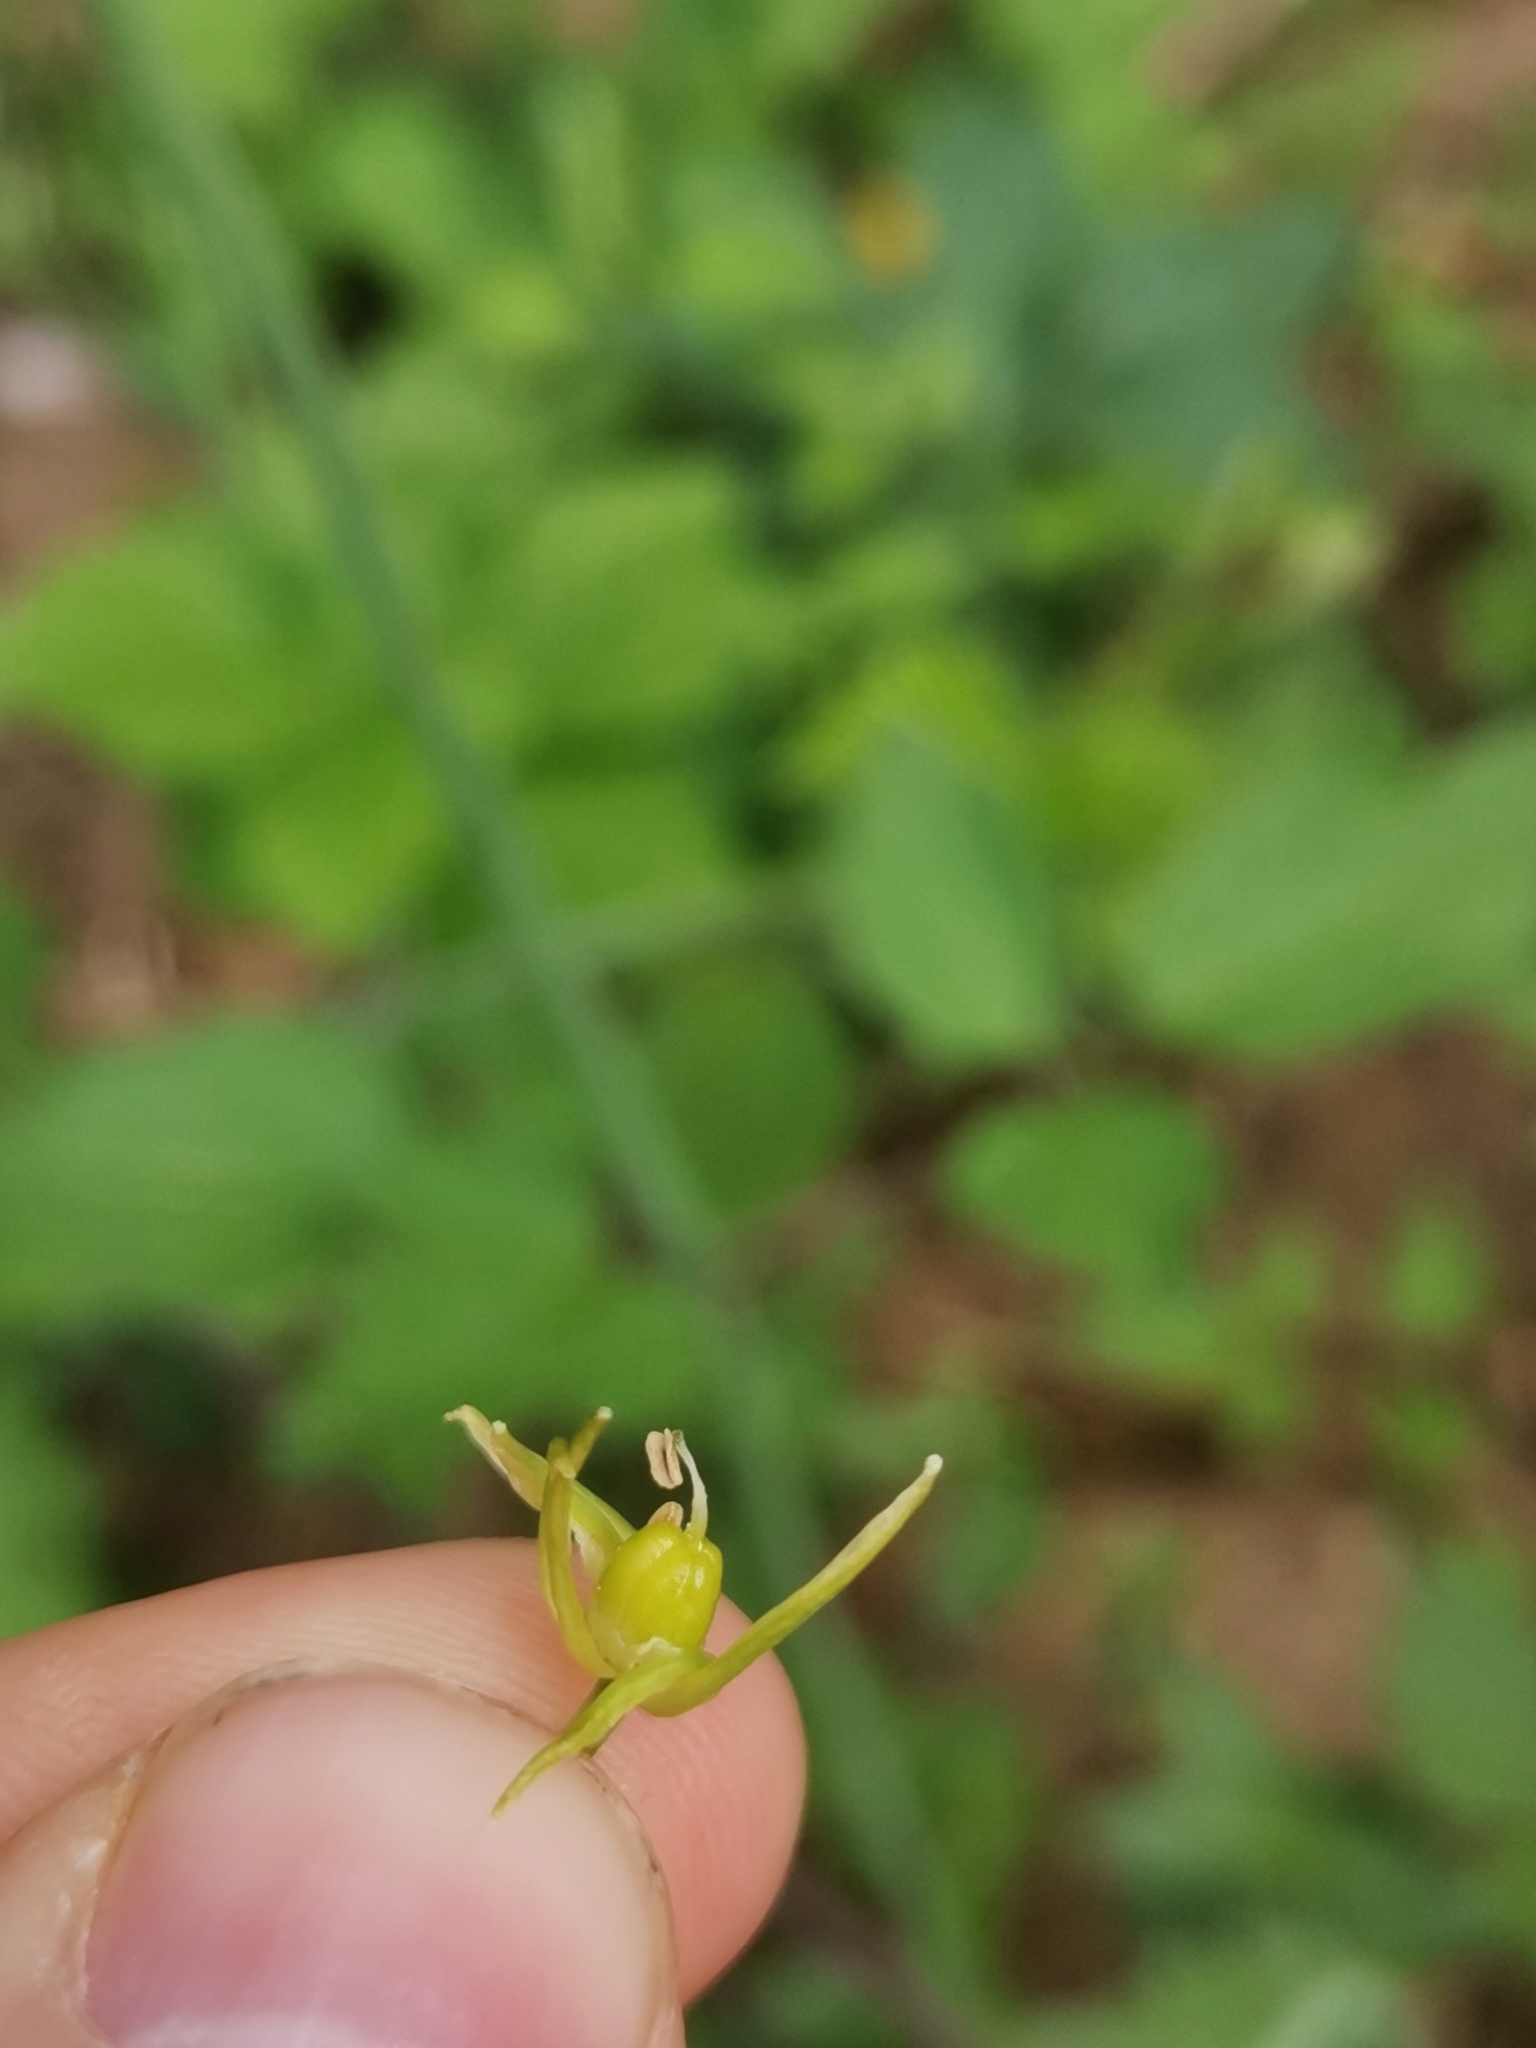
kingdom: Plantae
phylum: Tracheophyta
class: Liliopsida
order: Asparagales
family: Asparagaceae
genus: Ornithogalum
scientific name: Ornithogalum pyrenaicum
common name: Spiked star-of-bethlehem
